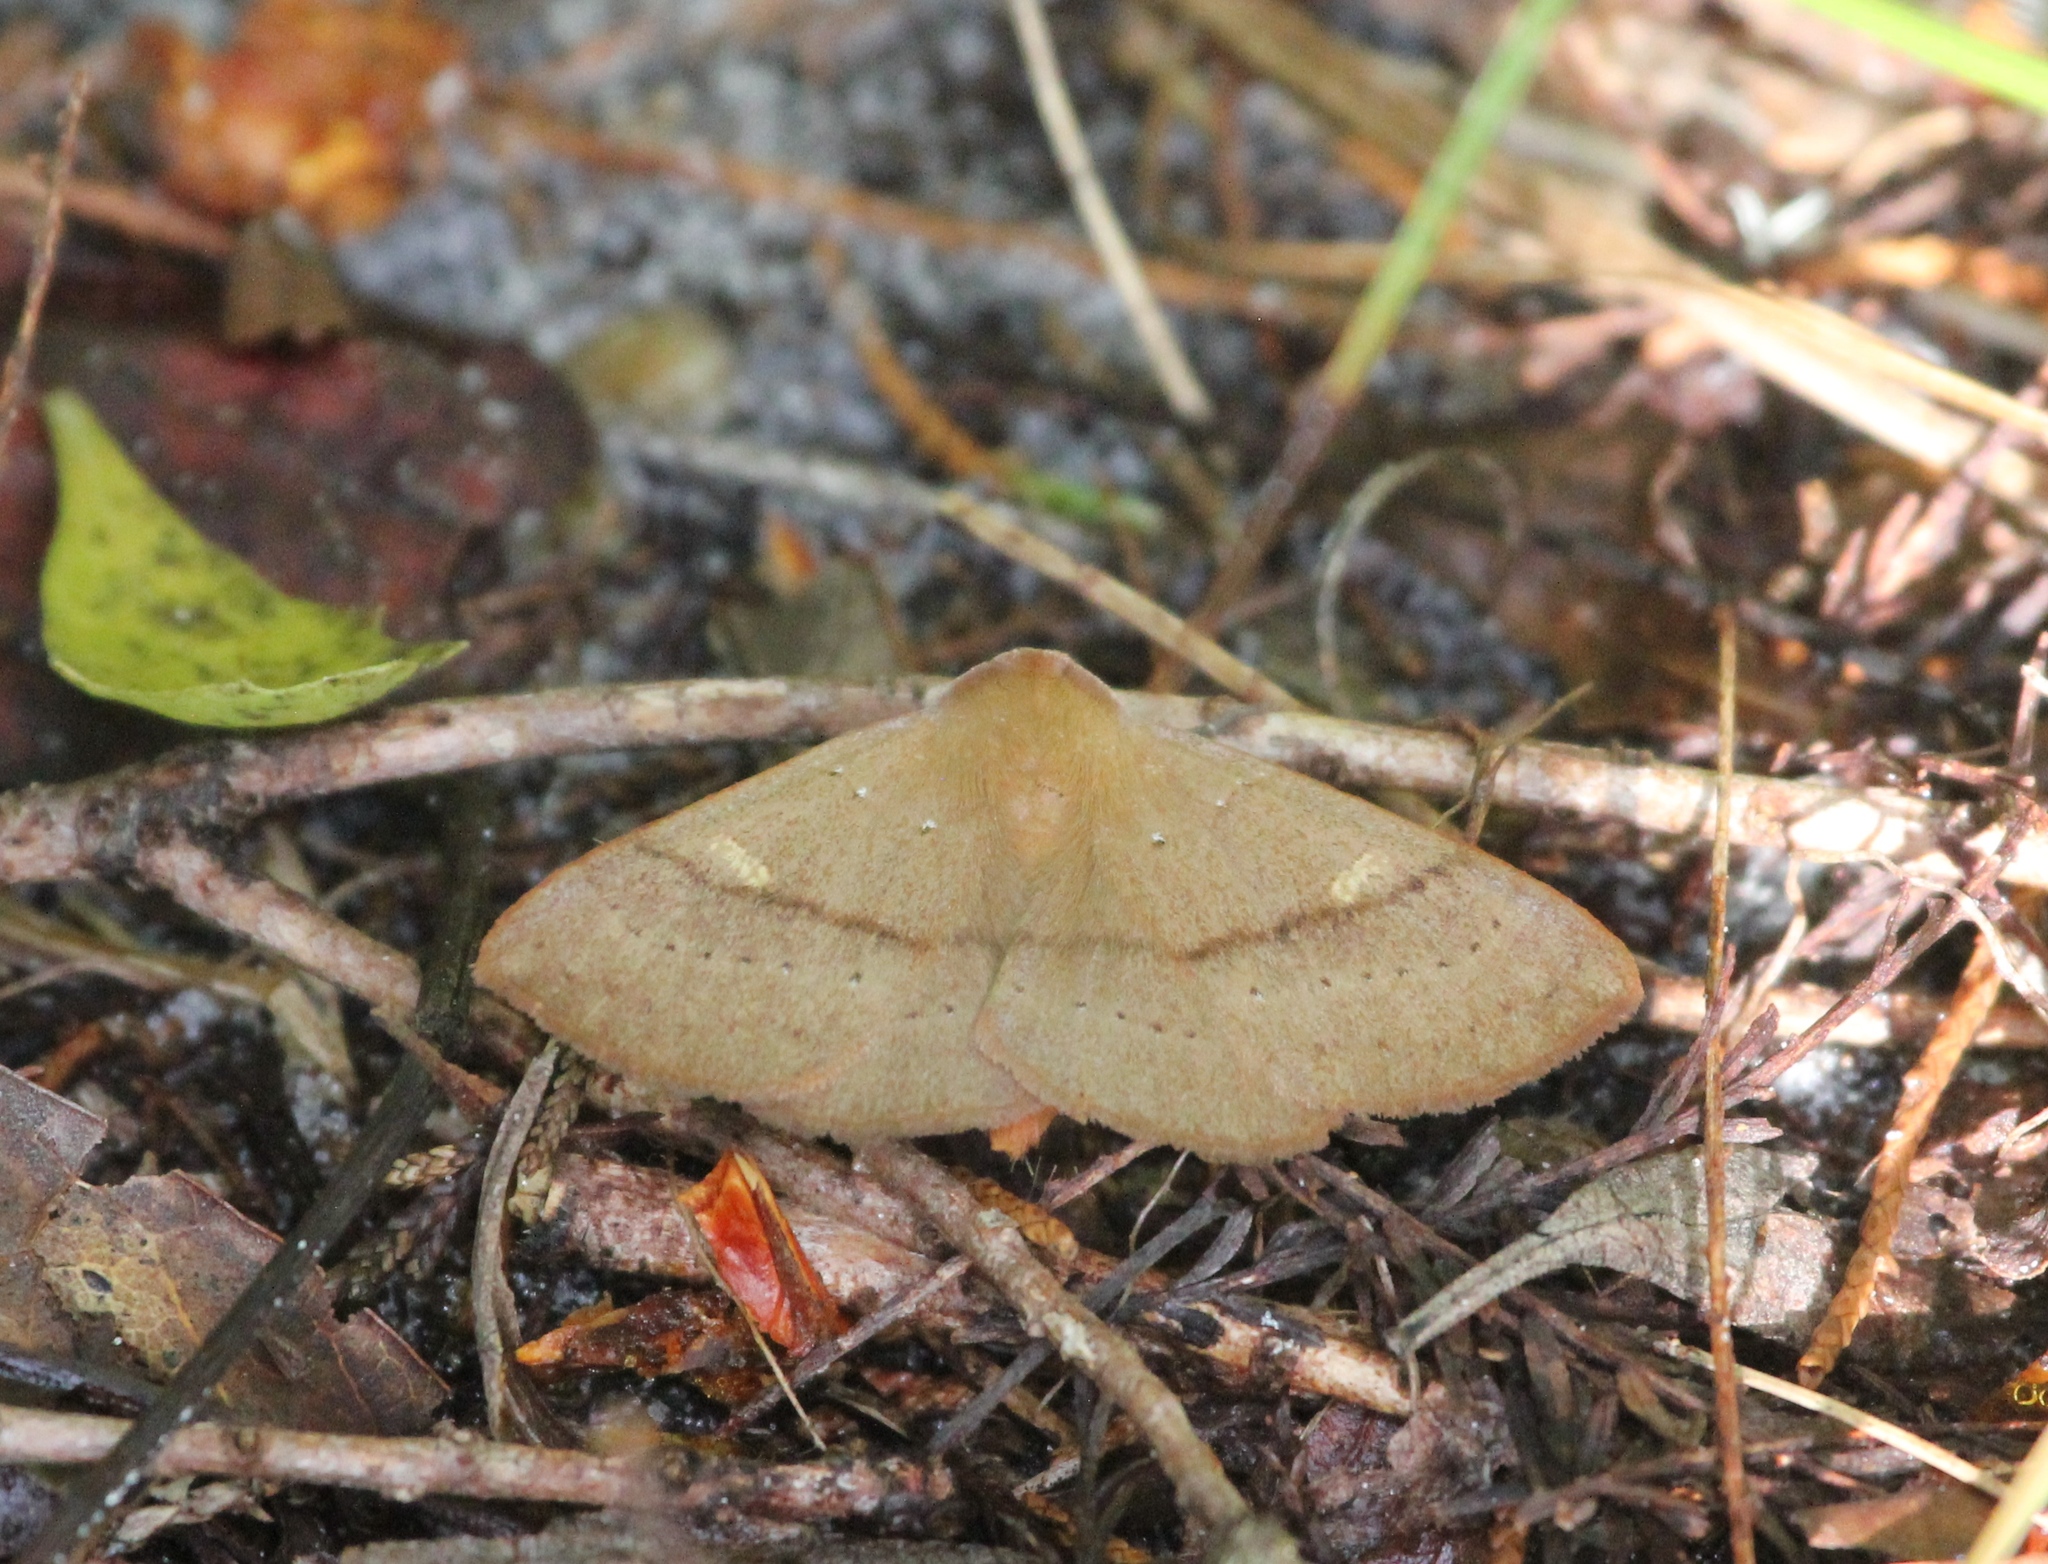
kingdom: Animalia
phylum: Arthropoda
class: Insecta
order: Lepidoptera
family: Erebidae
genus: Panopoda
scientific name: Panopoda repanda
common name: Orange panopoda
